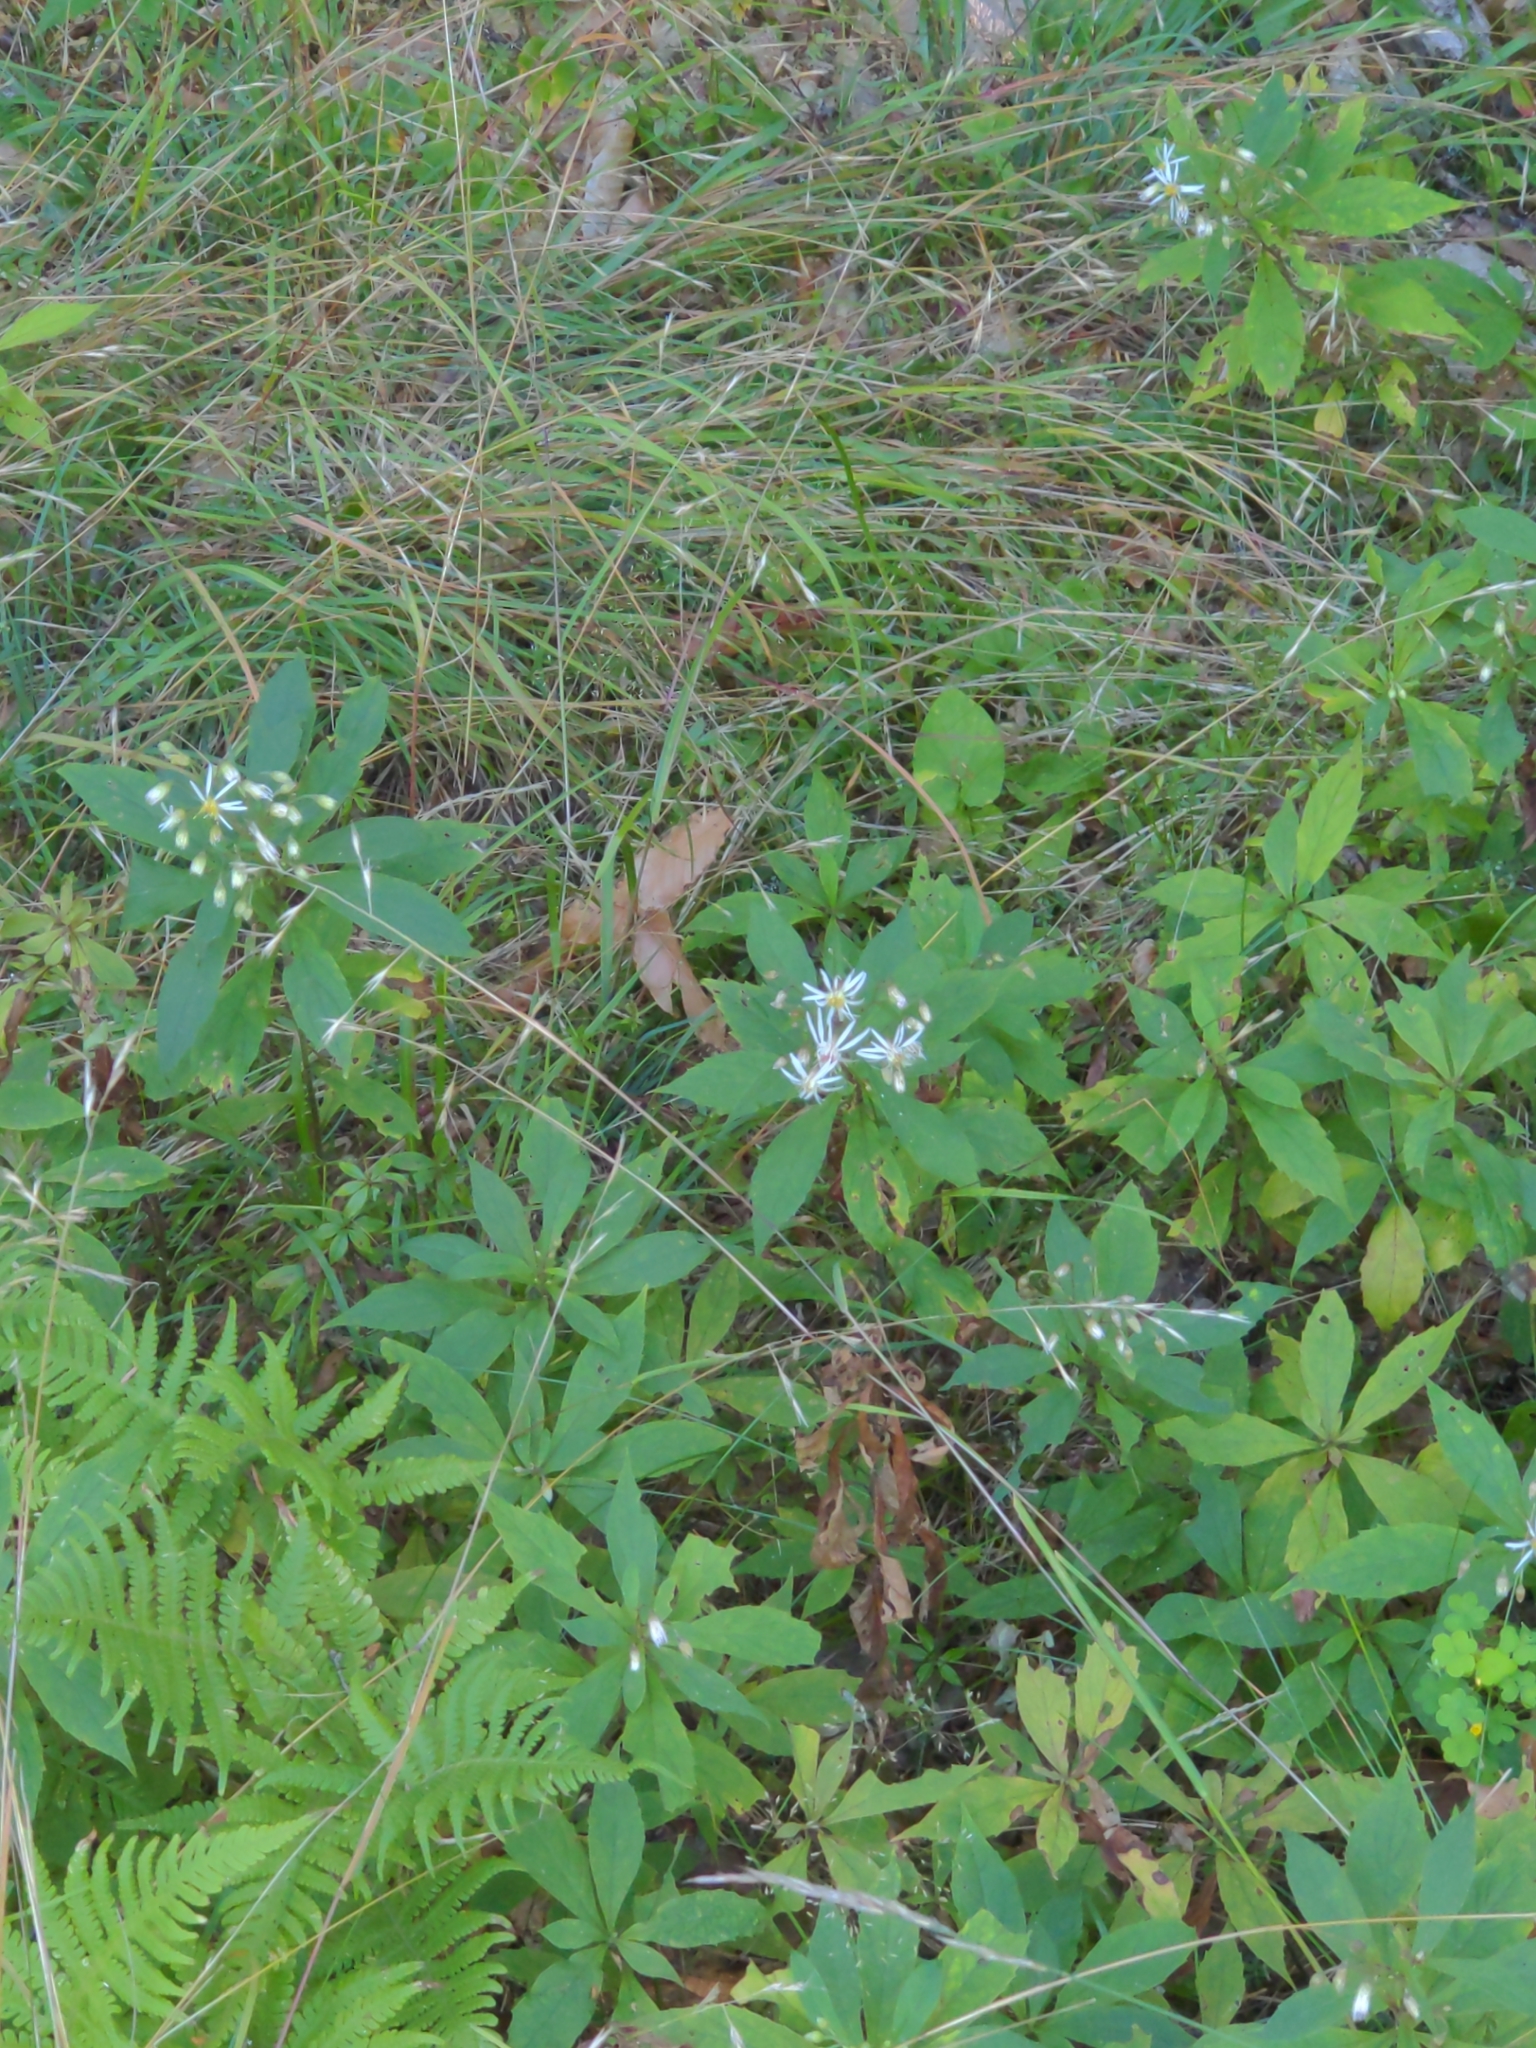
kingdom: Plantae
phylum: Tracheophyta
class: Magnoliopsida
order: Asterales
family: Asteraceae
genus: Oclemena
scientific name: Oclemena acuminata
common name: Mountain aster
